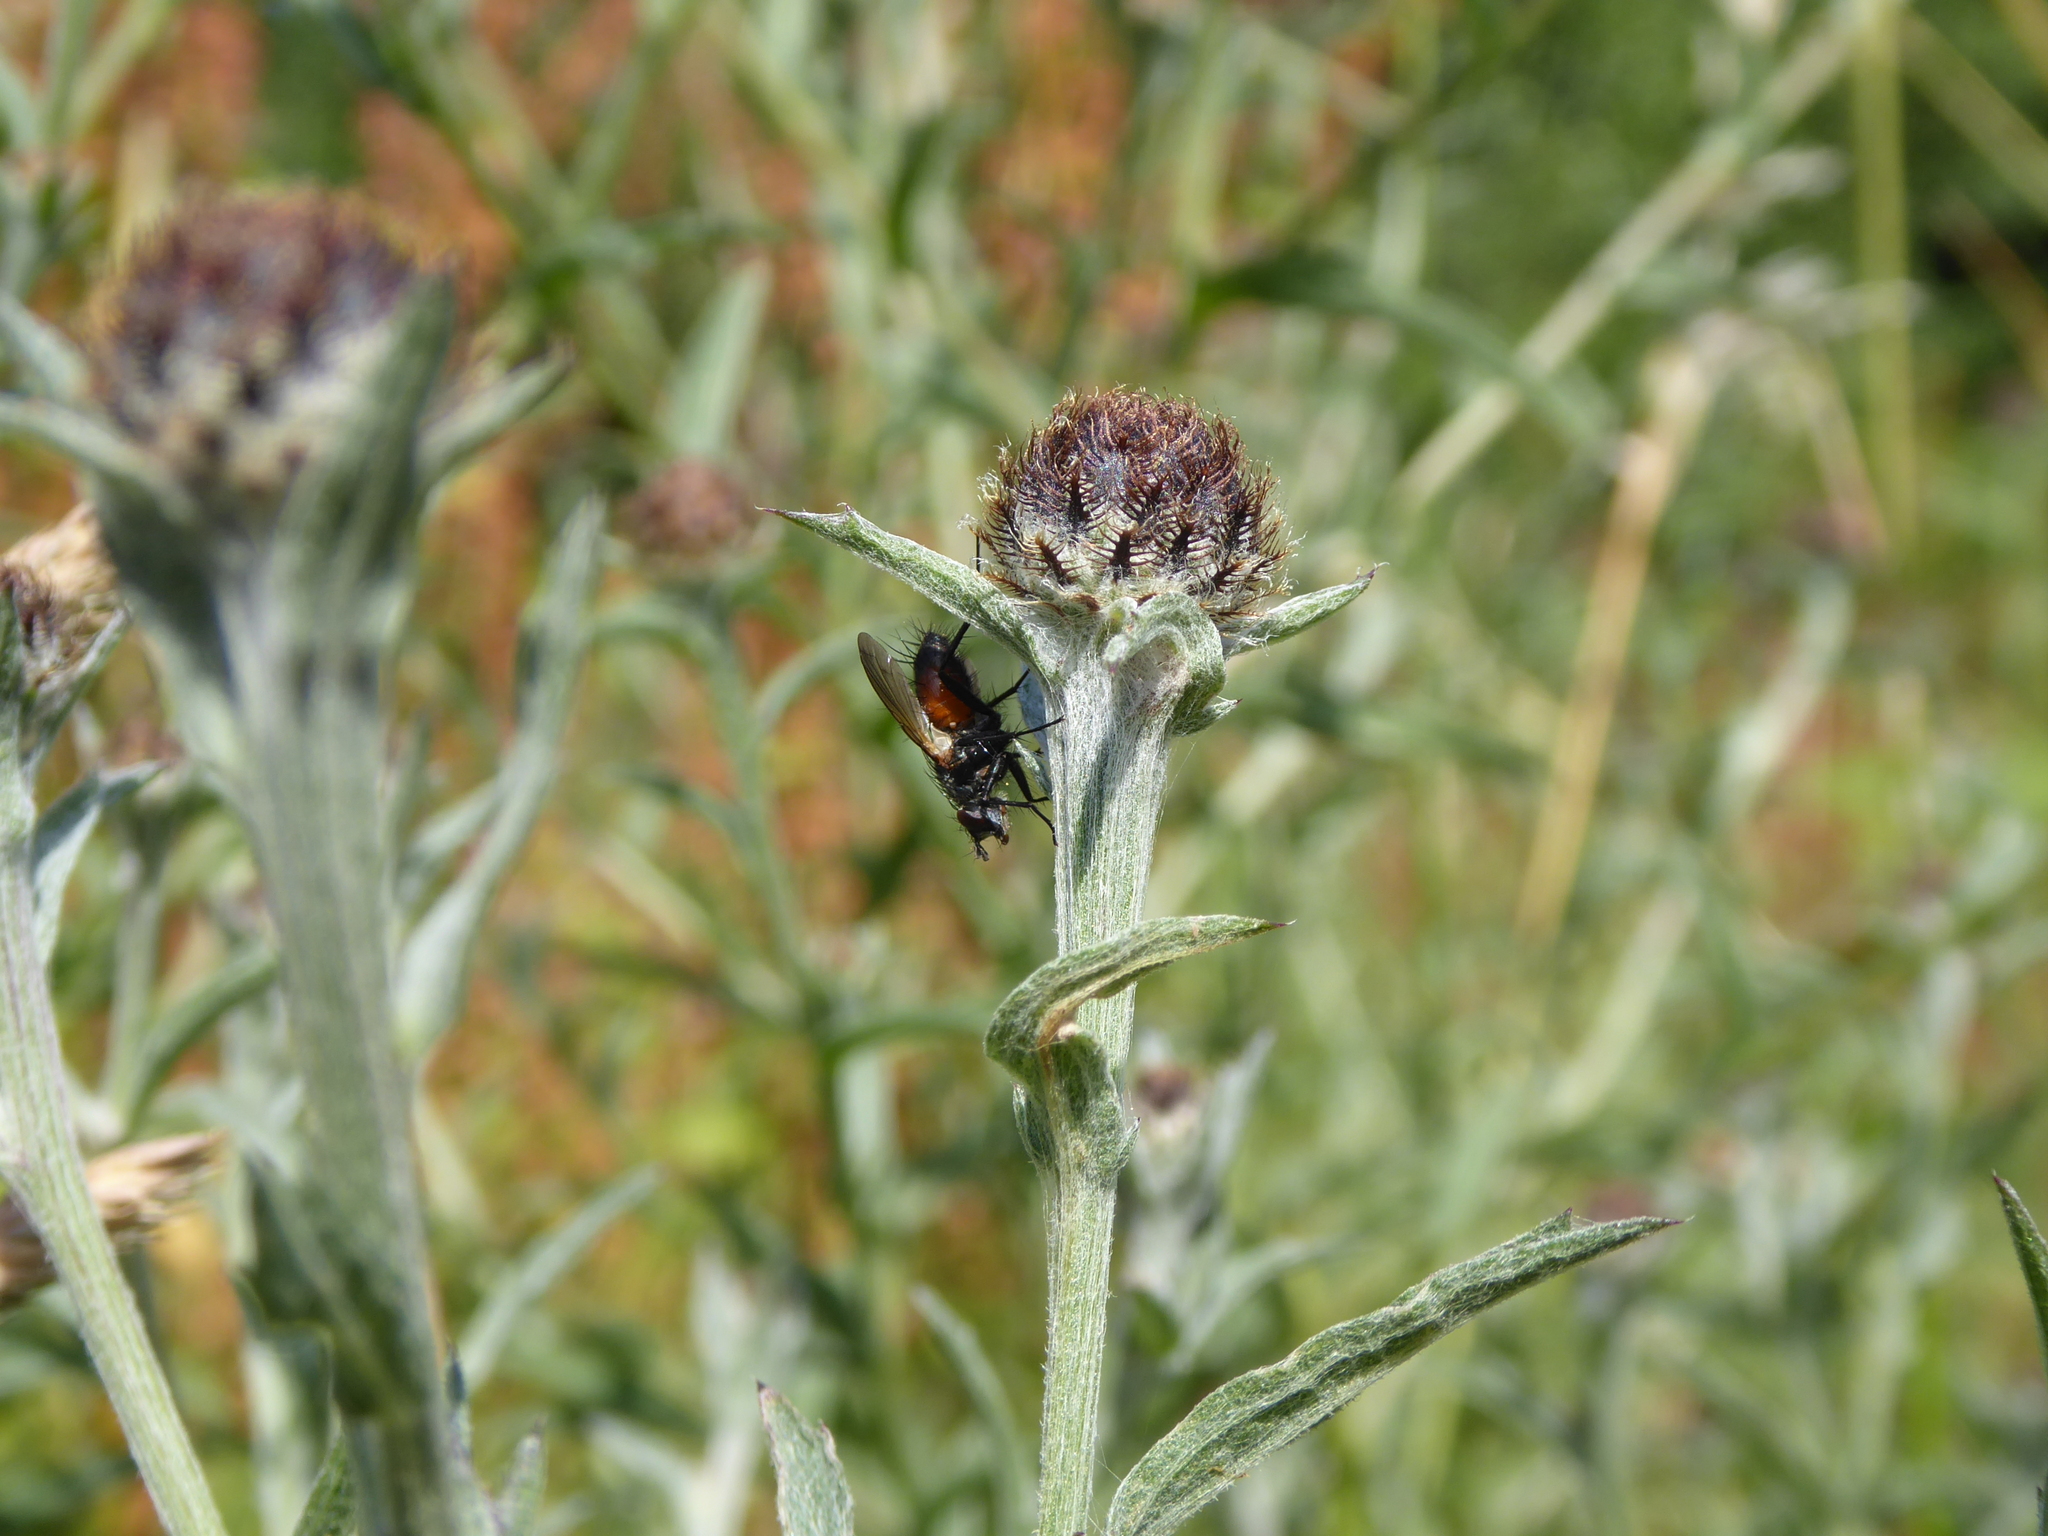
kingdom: Animalia
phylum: Arthropoda
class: Insecta
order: Diptera
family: Tachinidae
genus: Eriothrix
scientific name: Eriothrix rufomaculatus
